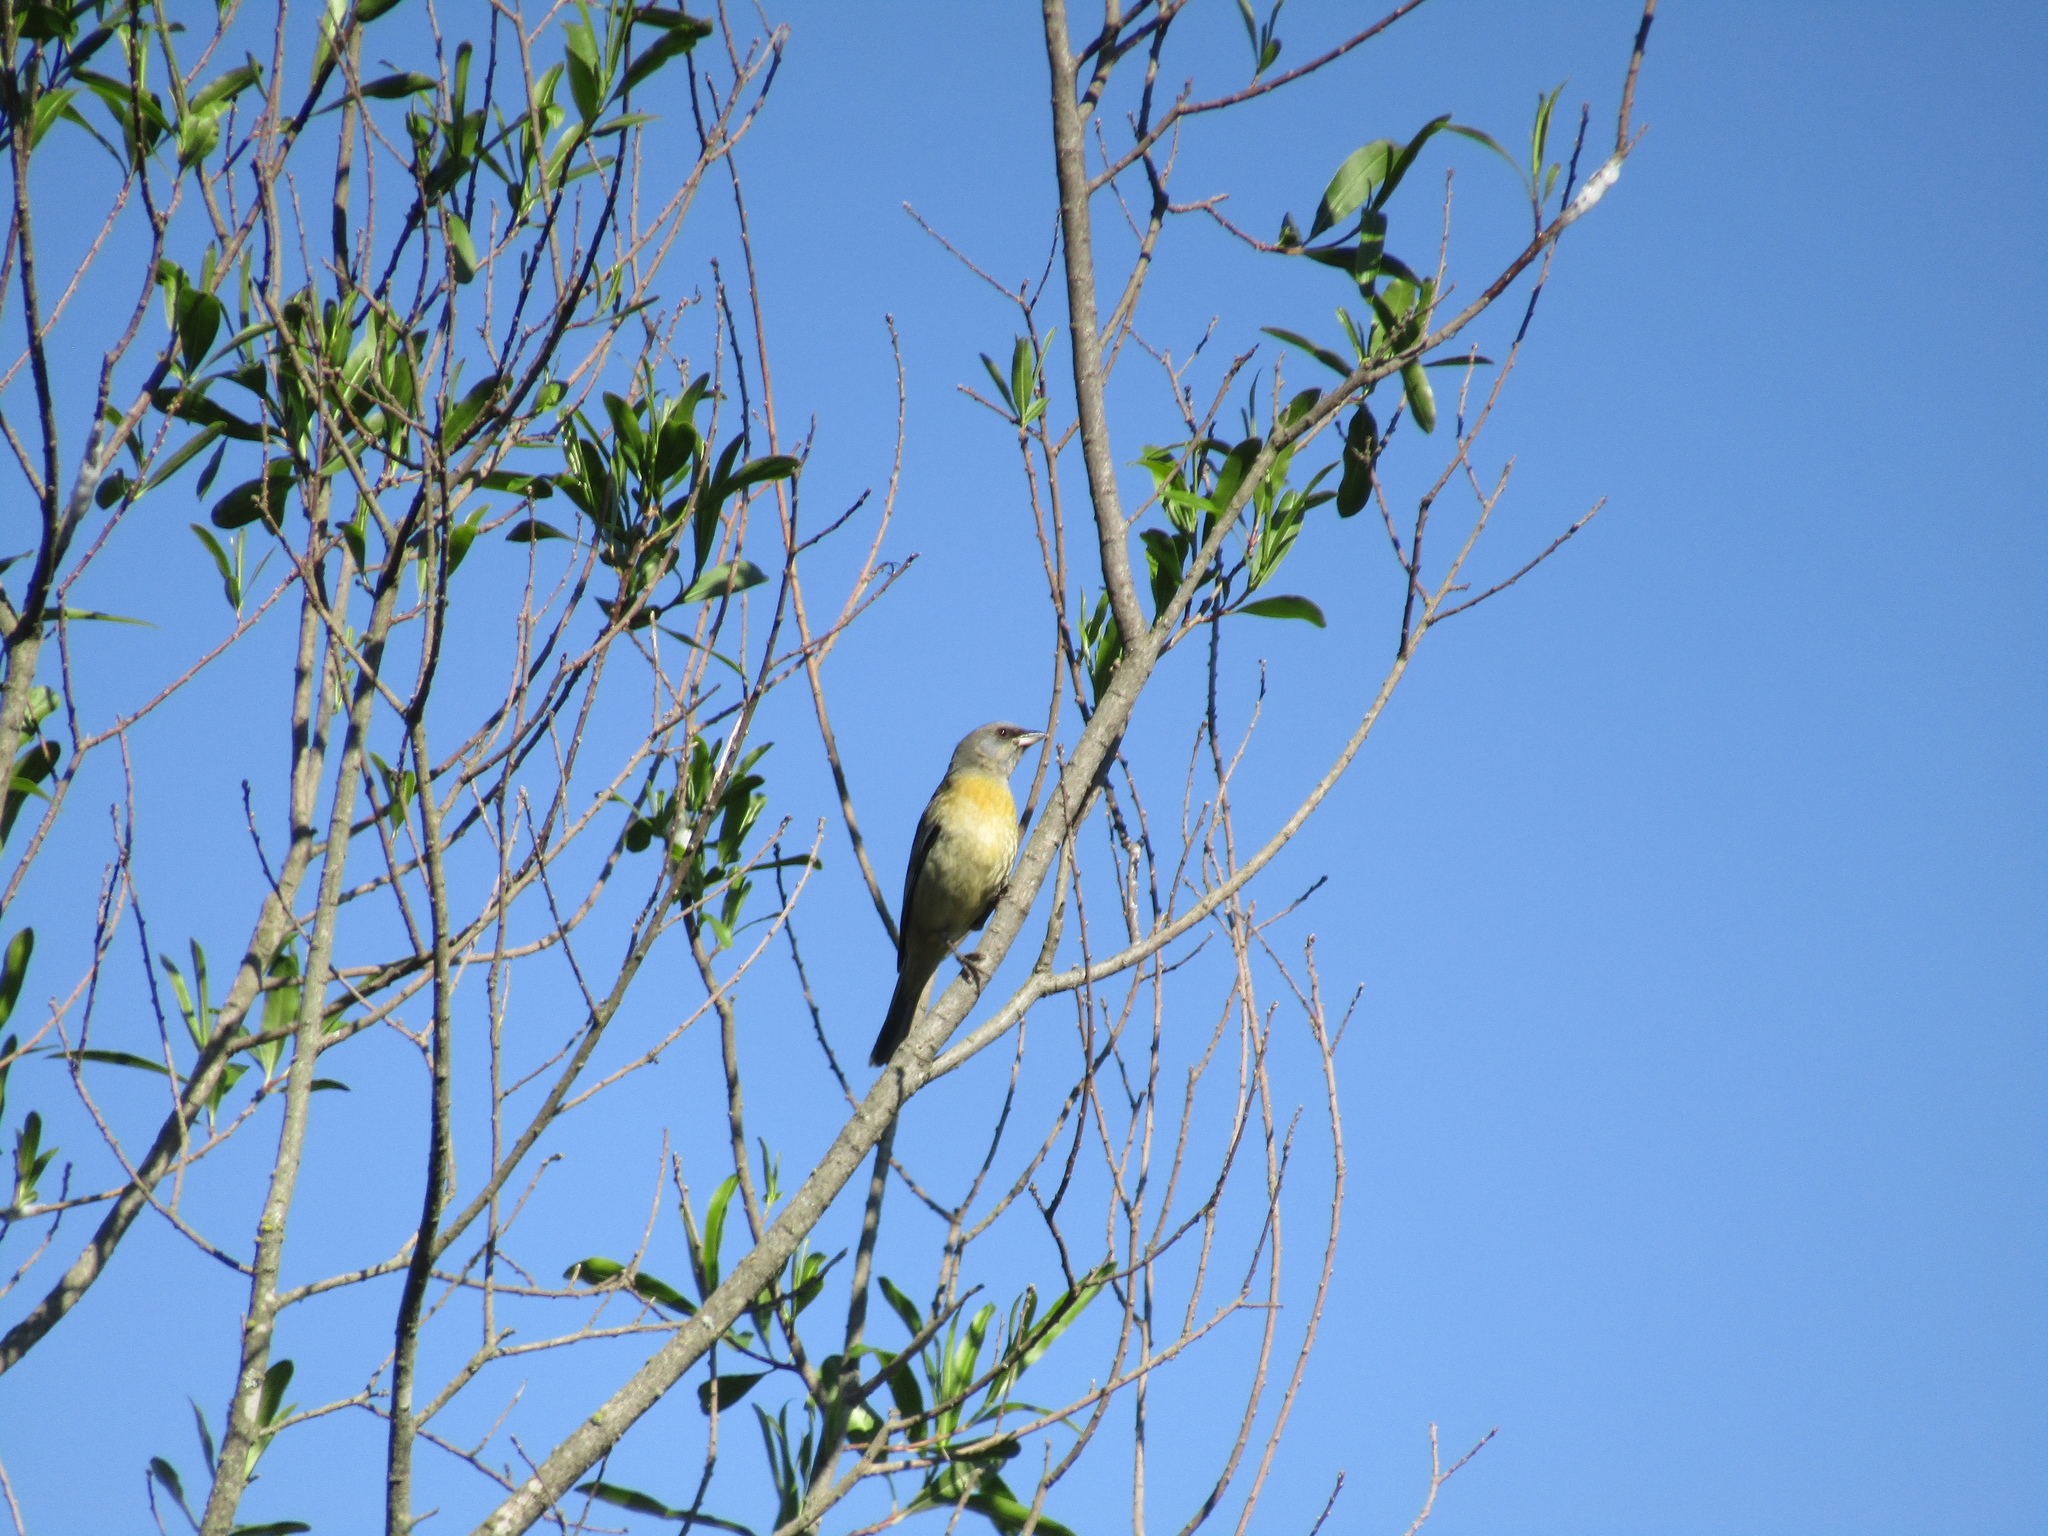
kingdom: Animalia
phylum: Chordata
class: Aves
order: Passeriformes
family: Thraupidae
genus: Rauenia
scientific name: Rauenia bonariensis
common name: Blue-and-yellow tanager
